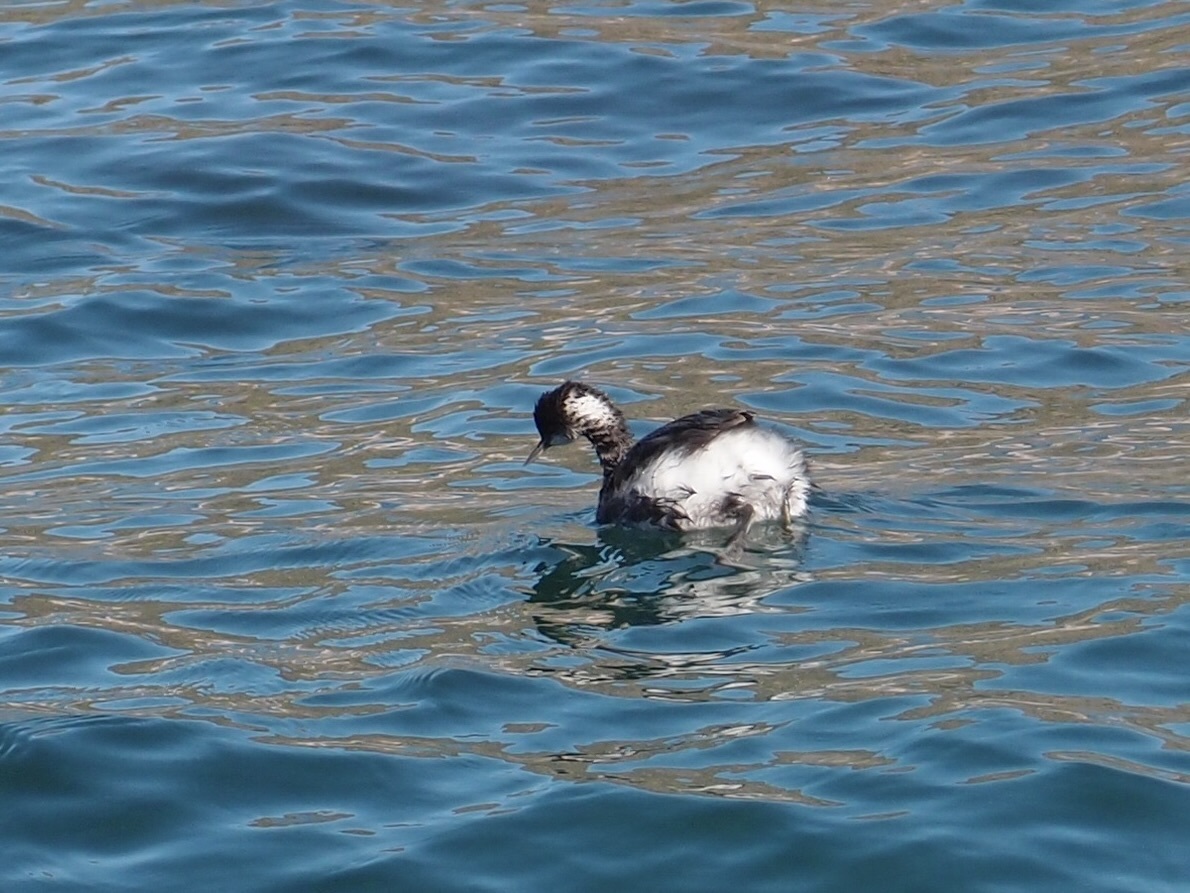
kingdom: Animalia
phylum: Chordata
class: Aves
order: Podicipediformes
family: Podicipedidae
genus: Podiceps
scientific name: Podiceps nigricollis
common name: Black-necked grebe
